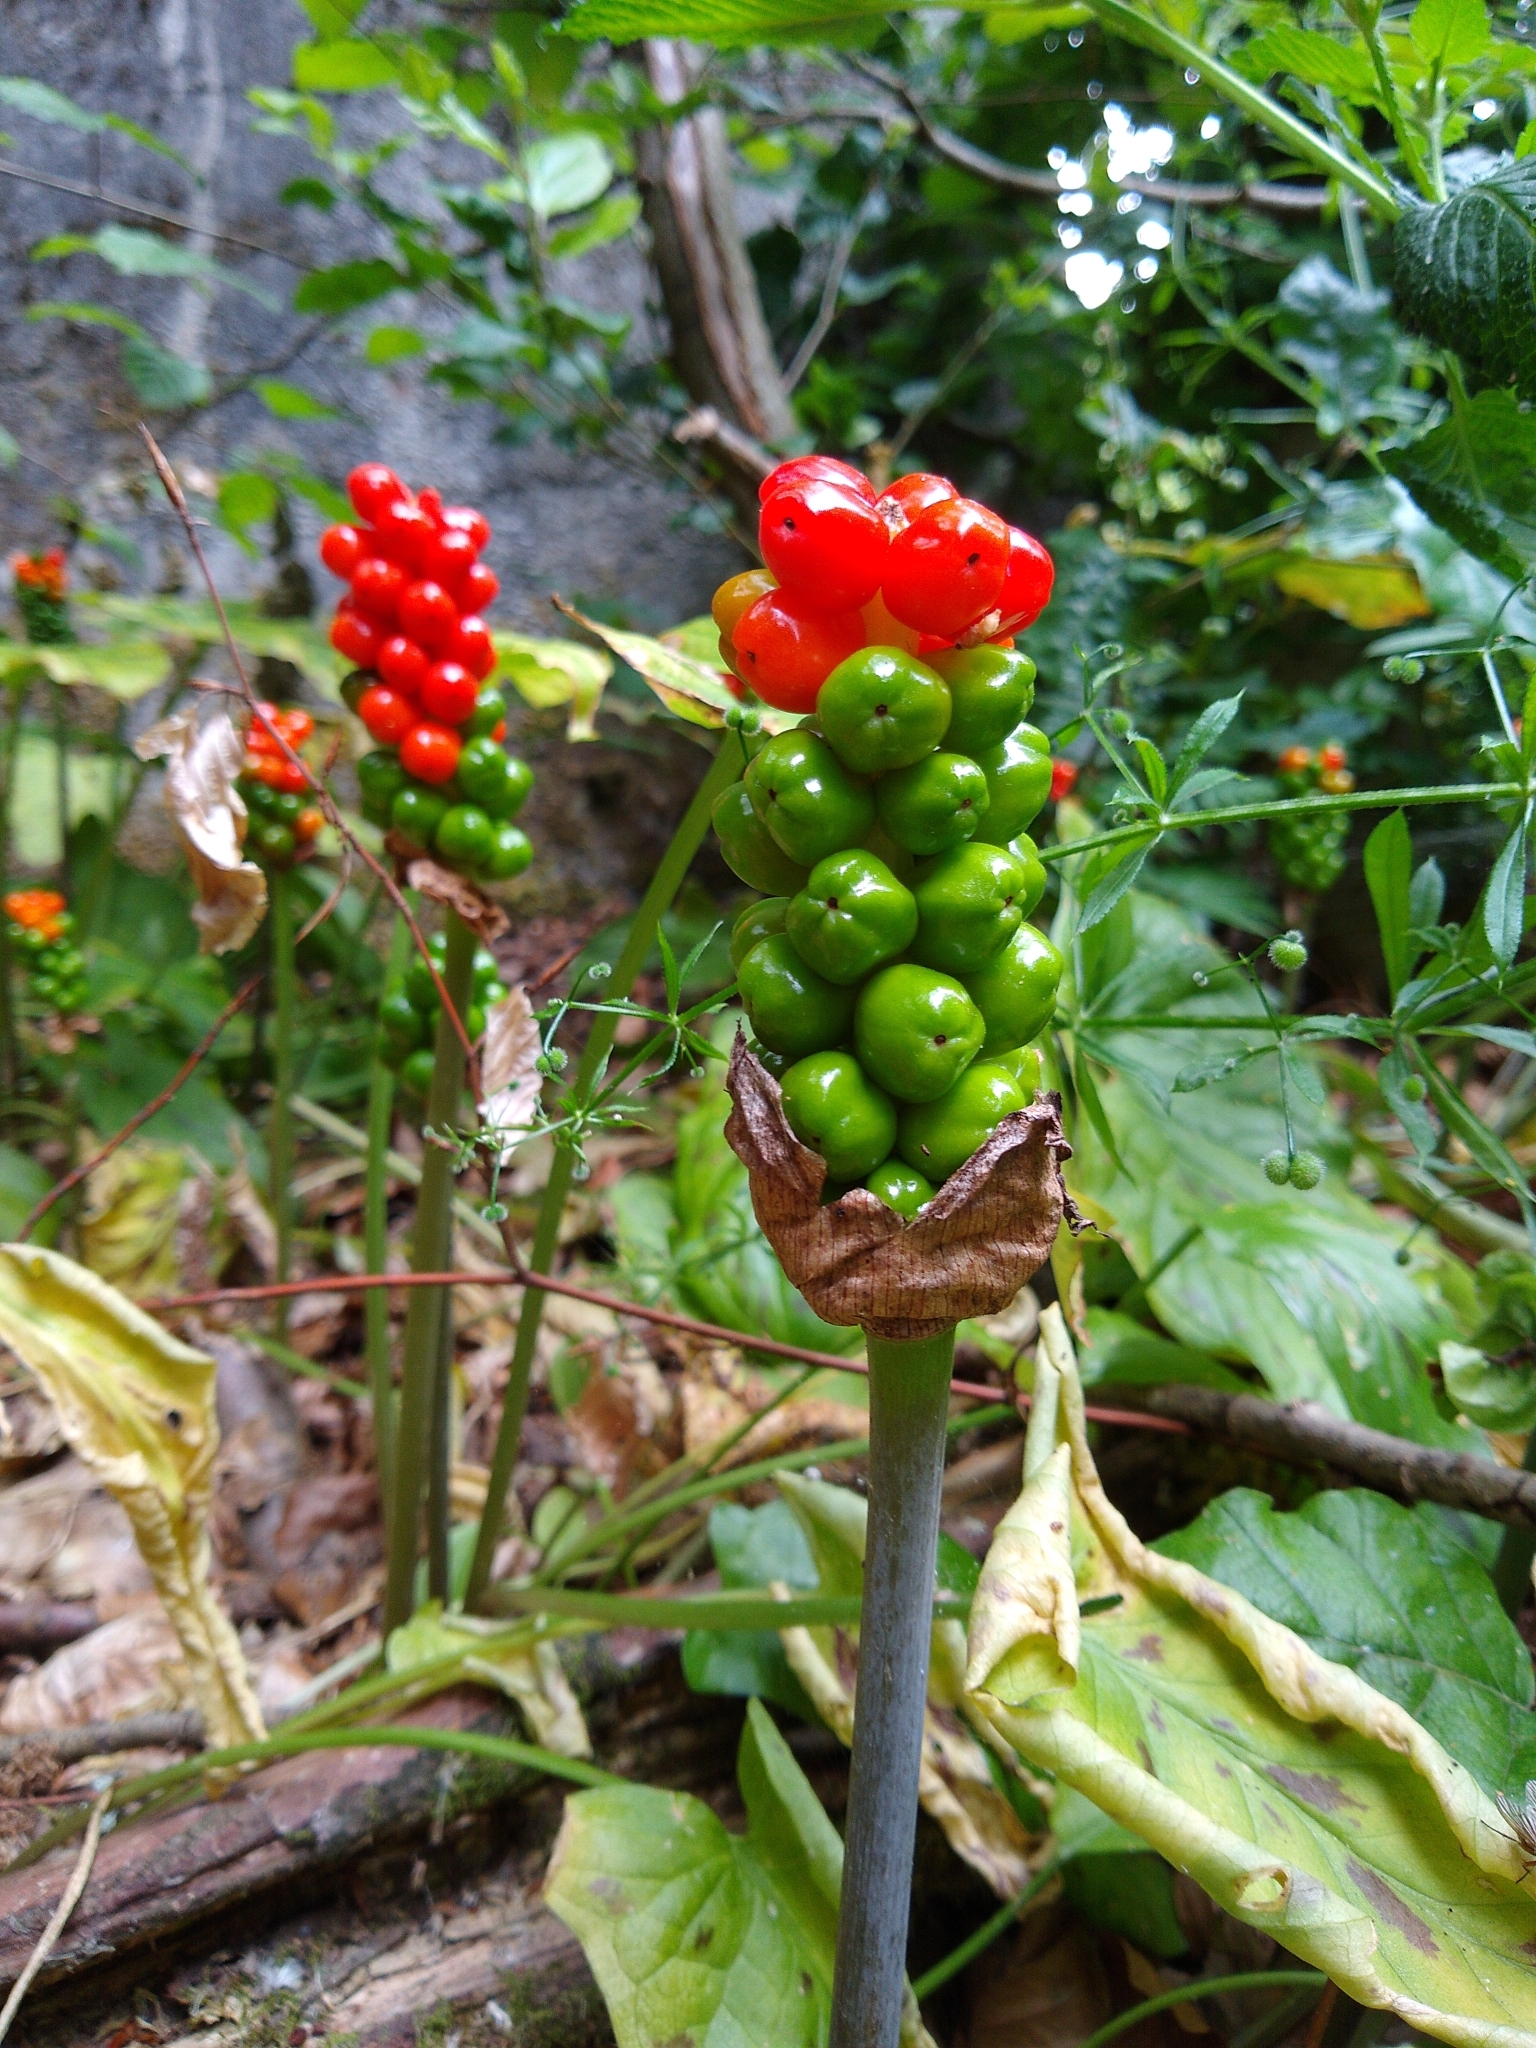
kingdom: Plantae
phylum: Tracheophyta
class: Liliopsida
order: Alismatales
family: Araceae
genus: Arum
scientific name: Arum maculatum
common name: Lords-and-ladies
